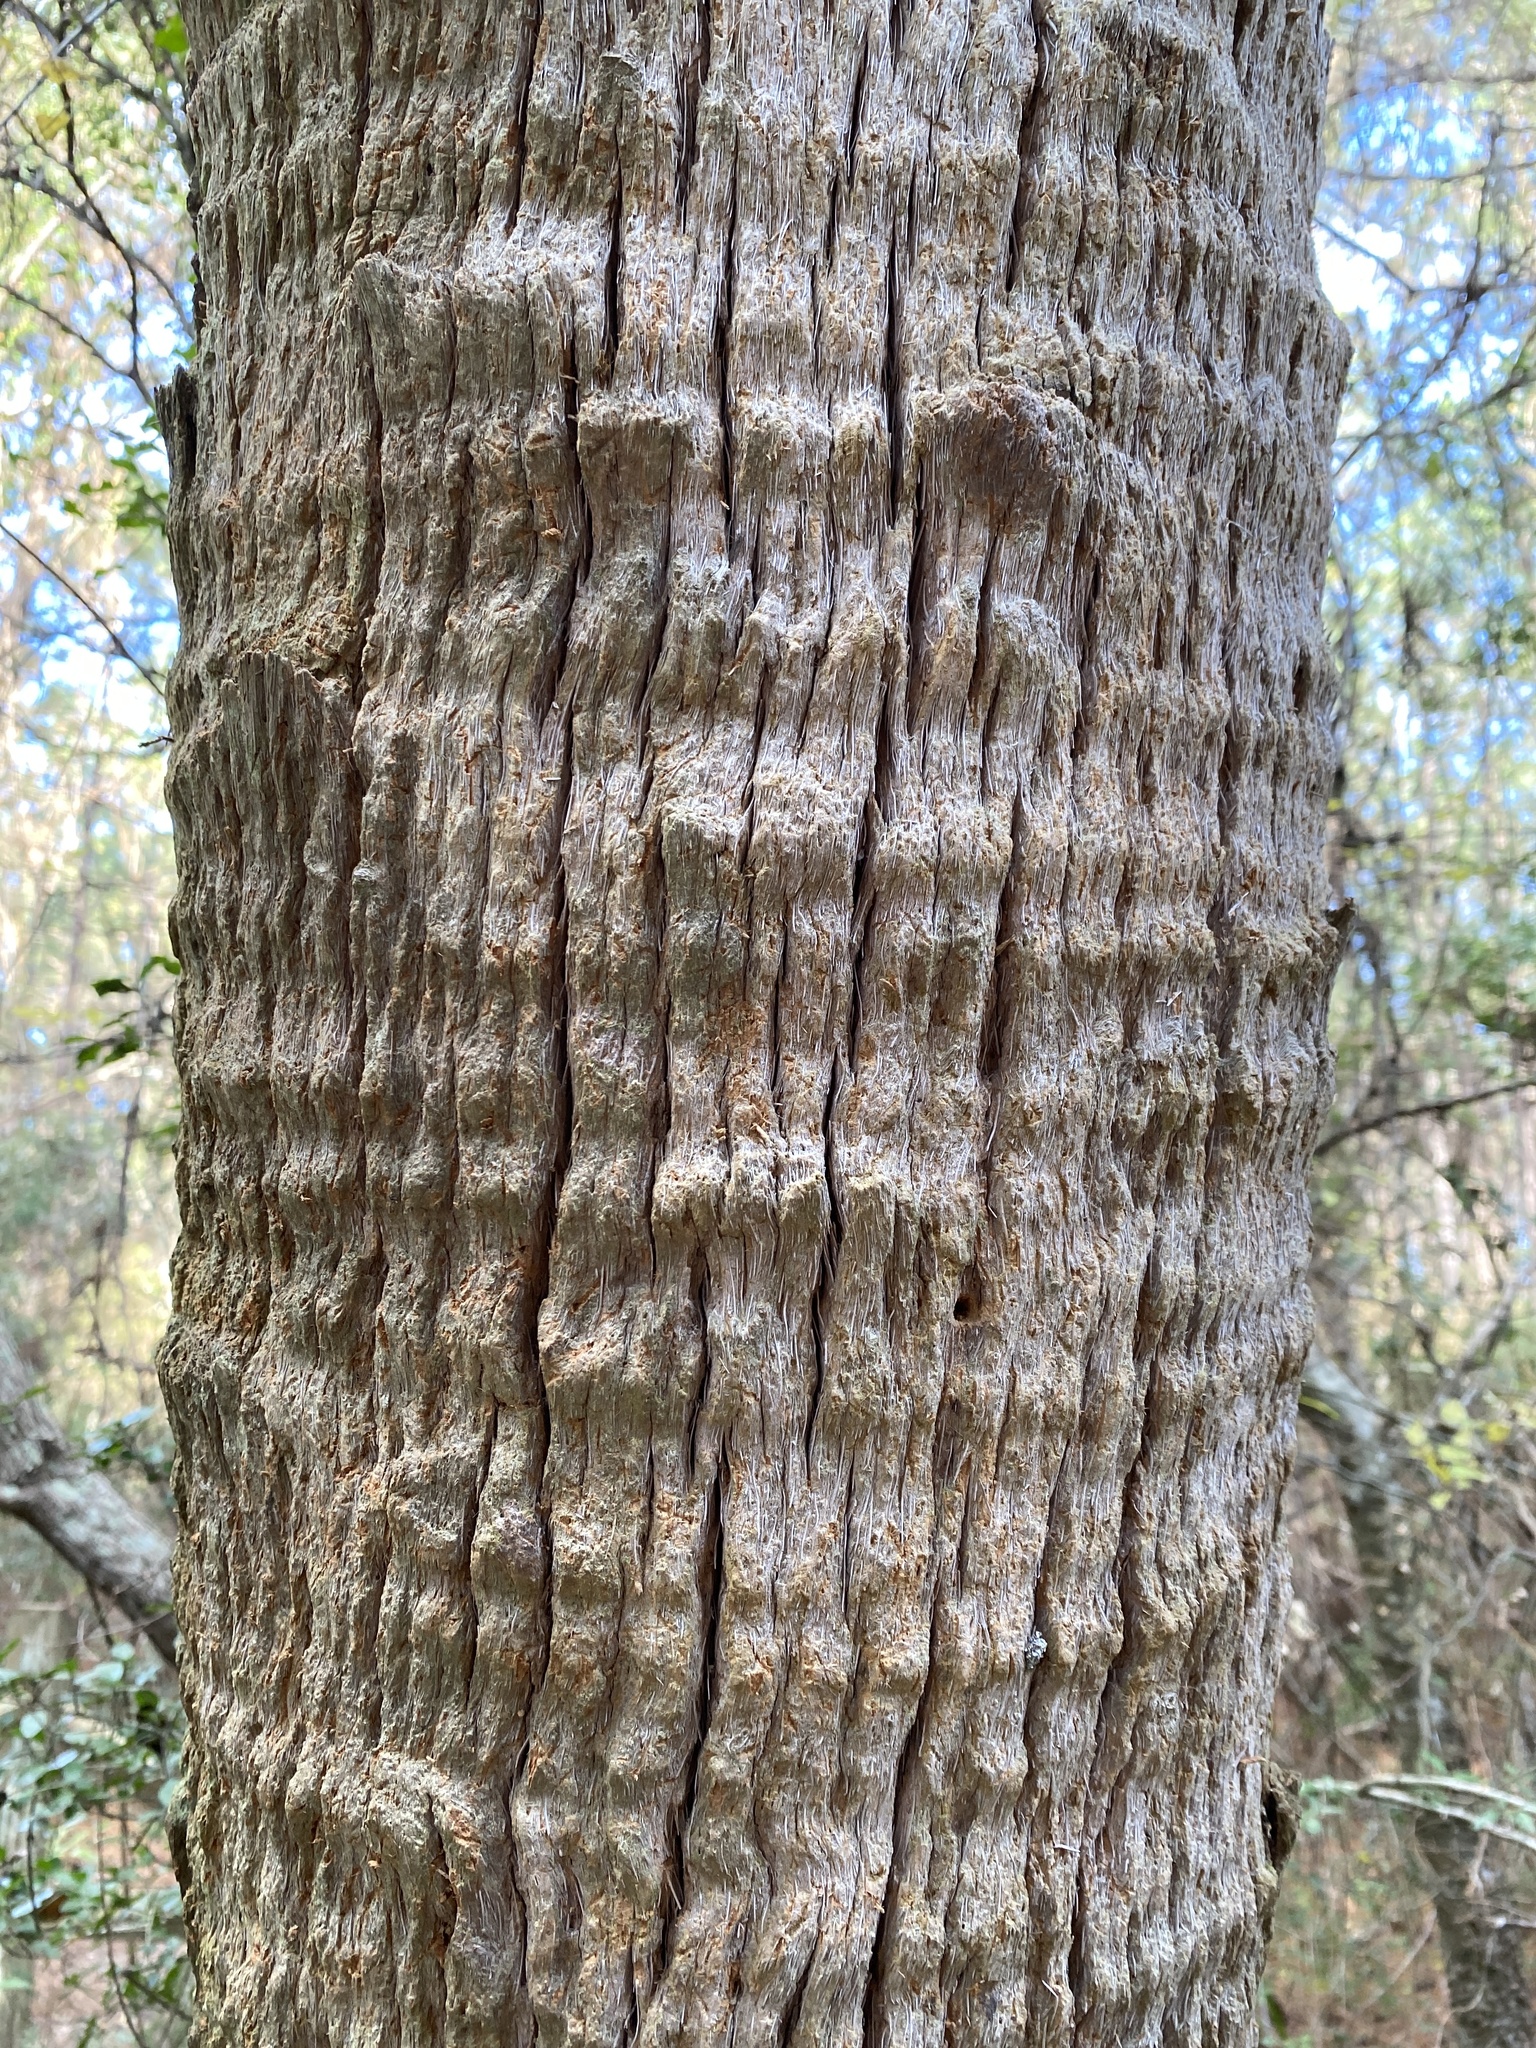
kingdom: Plantae
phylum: Tracheophyta
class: Liliopsida
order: Arecales
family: Arecaceae
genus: Sabal
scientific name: Sabal palmetto
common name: Blue palmetto
